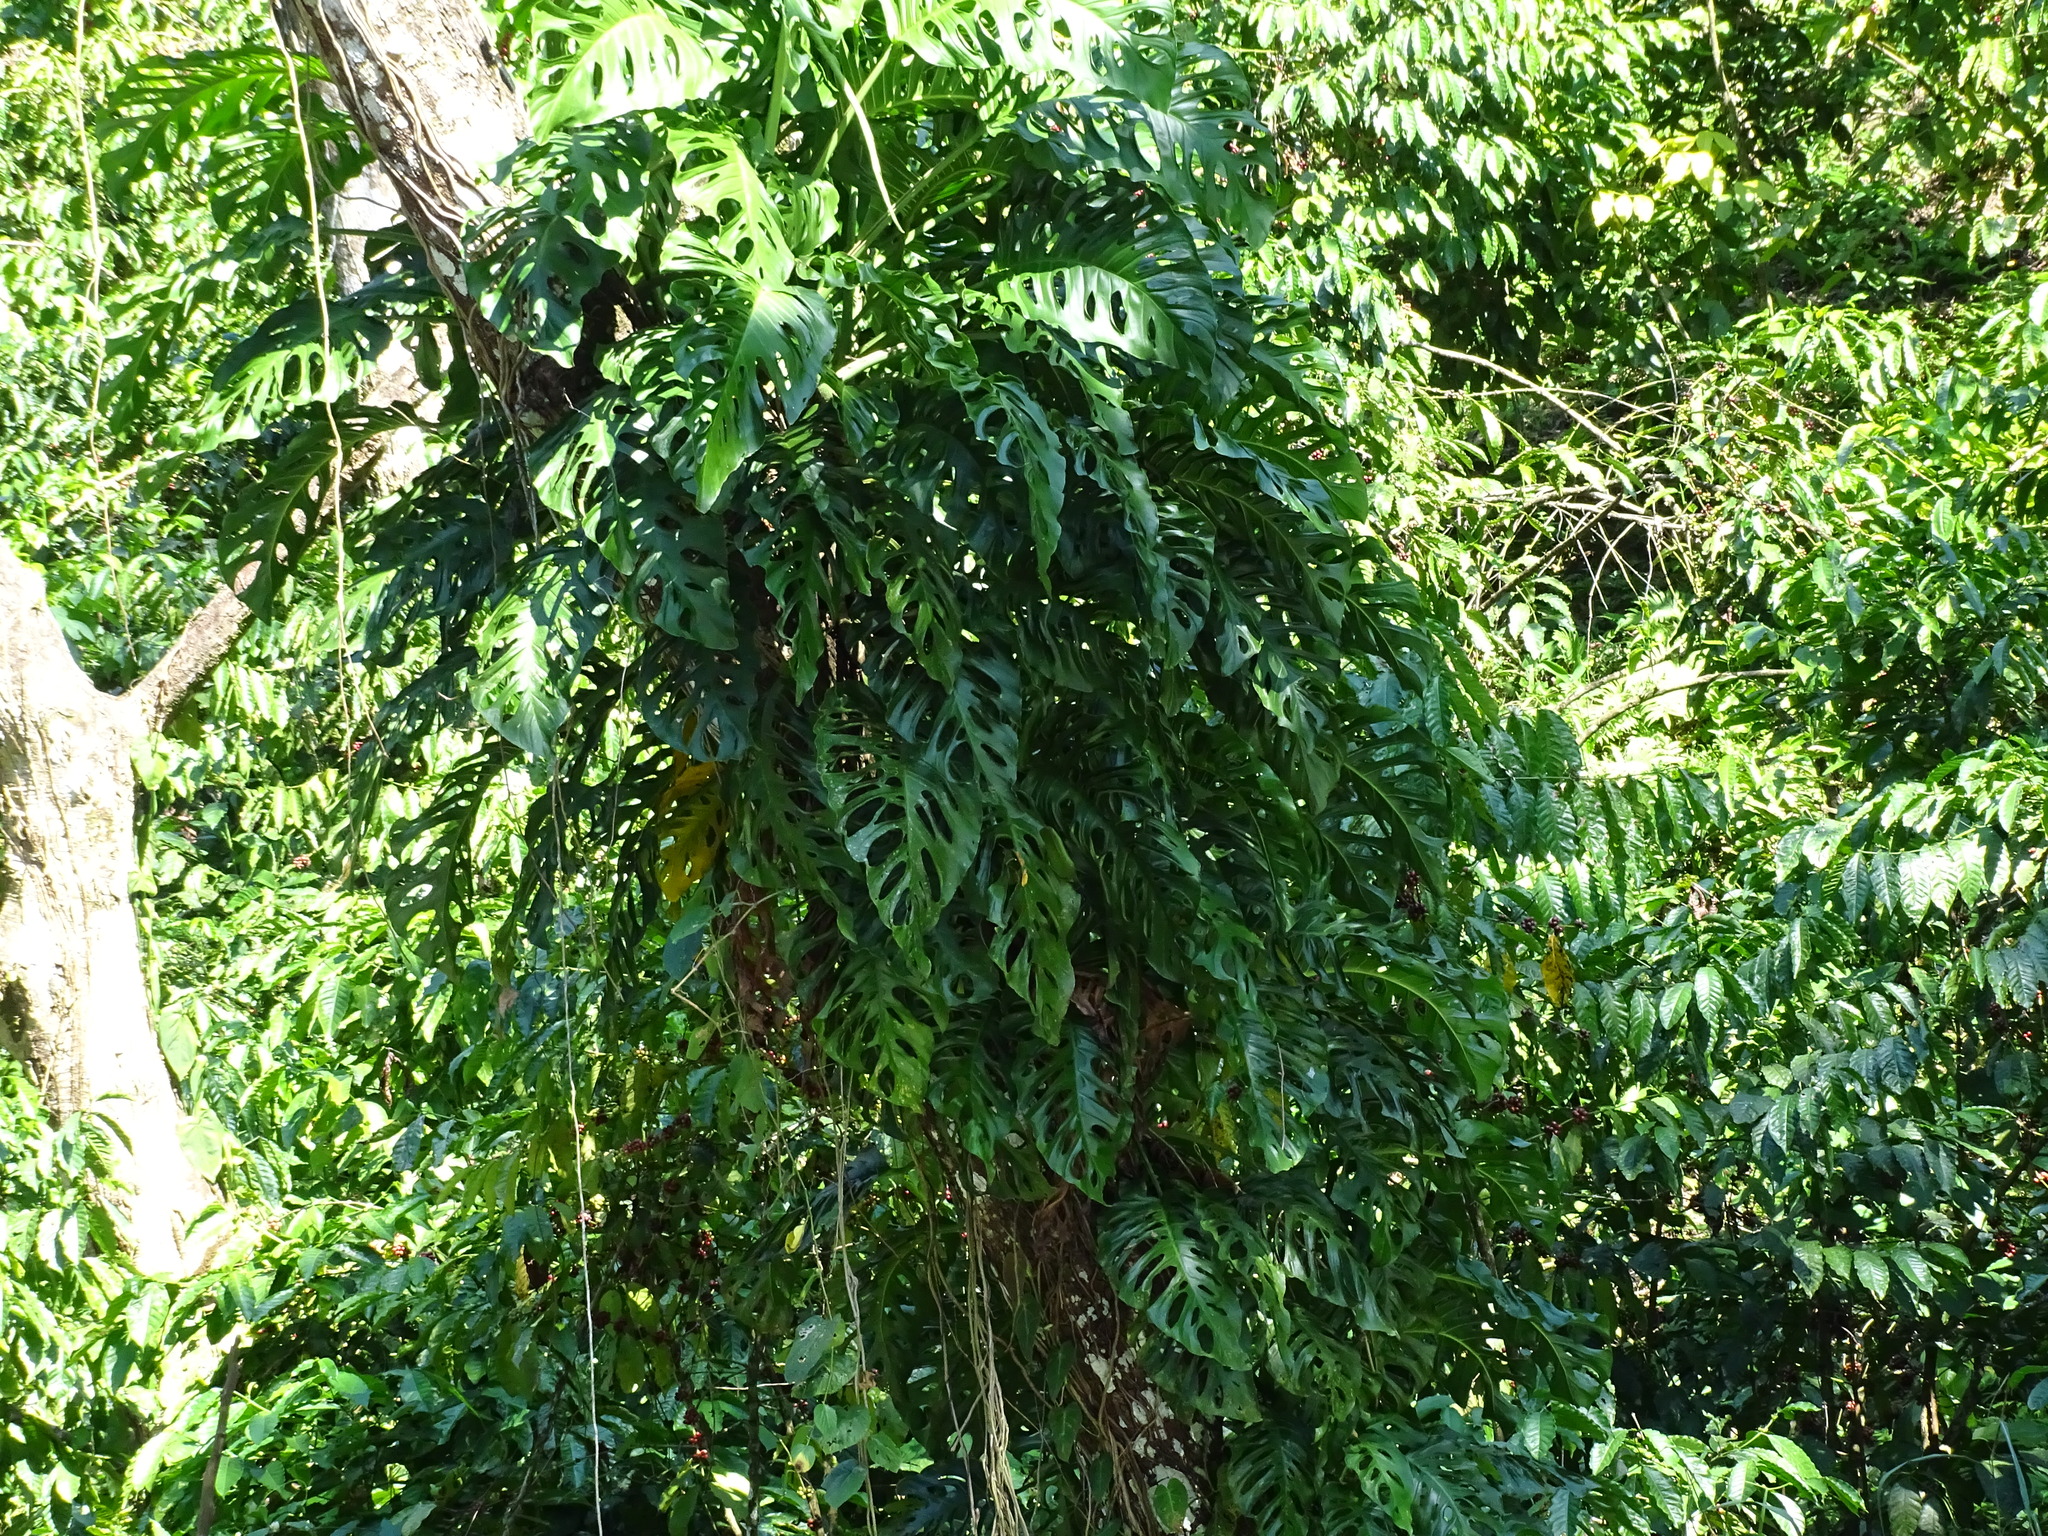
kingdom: Plantae
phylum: Tracheophyta
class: Liliopsida
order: Alismatales
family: Araceae
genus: Monstera
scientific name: Monstera acuminata
